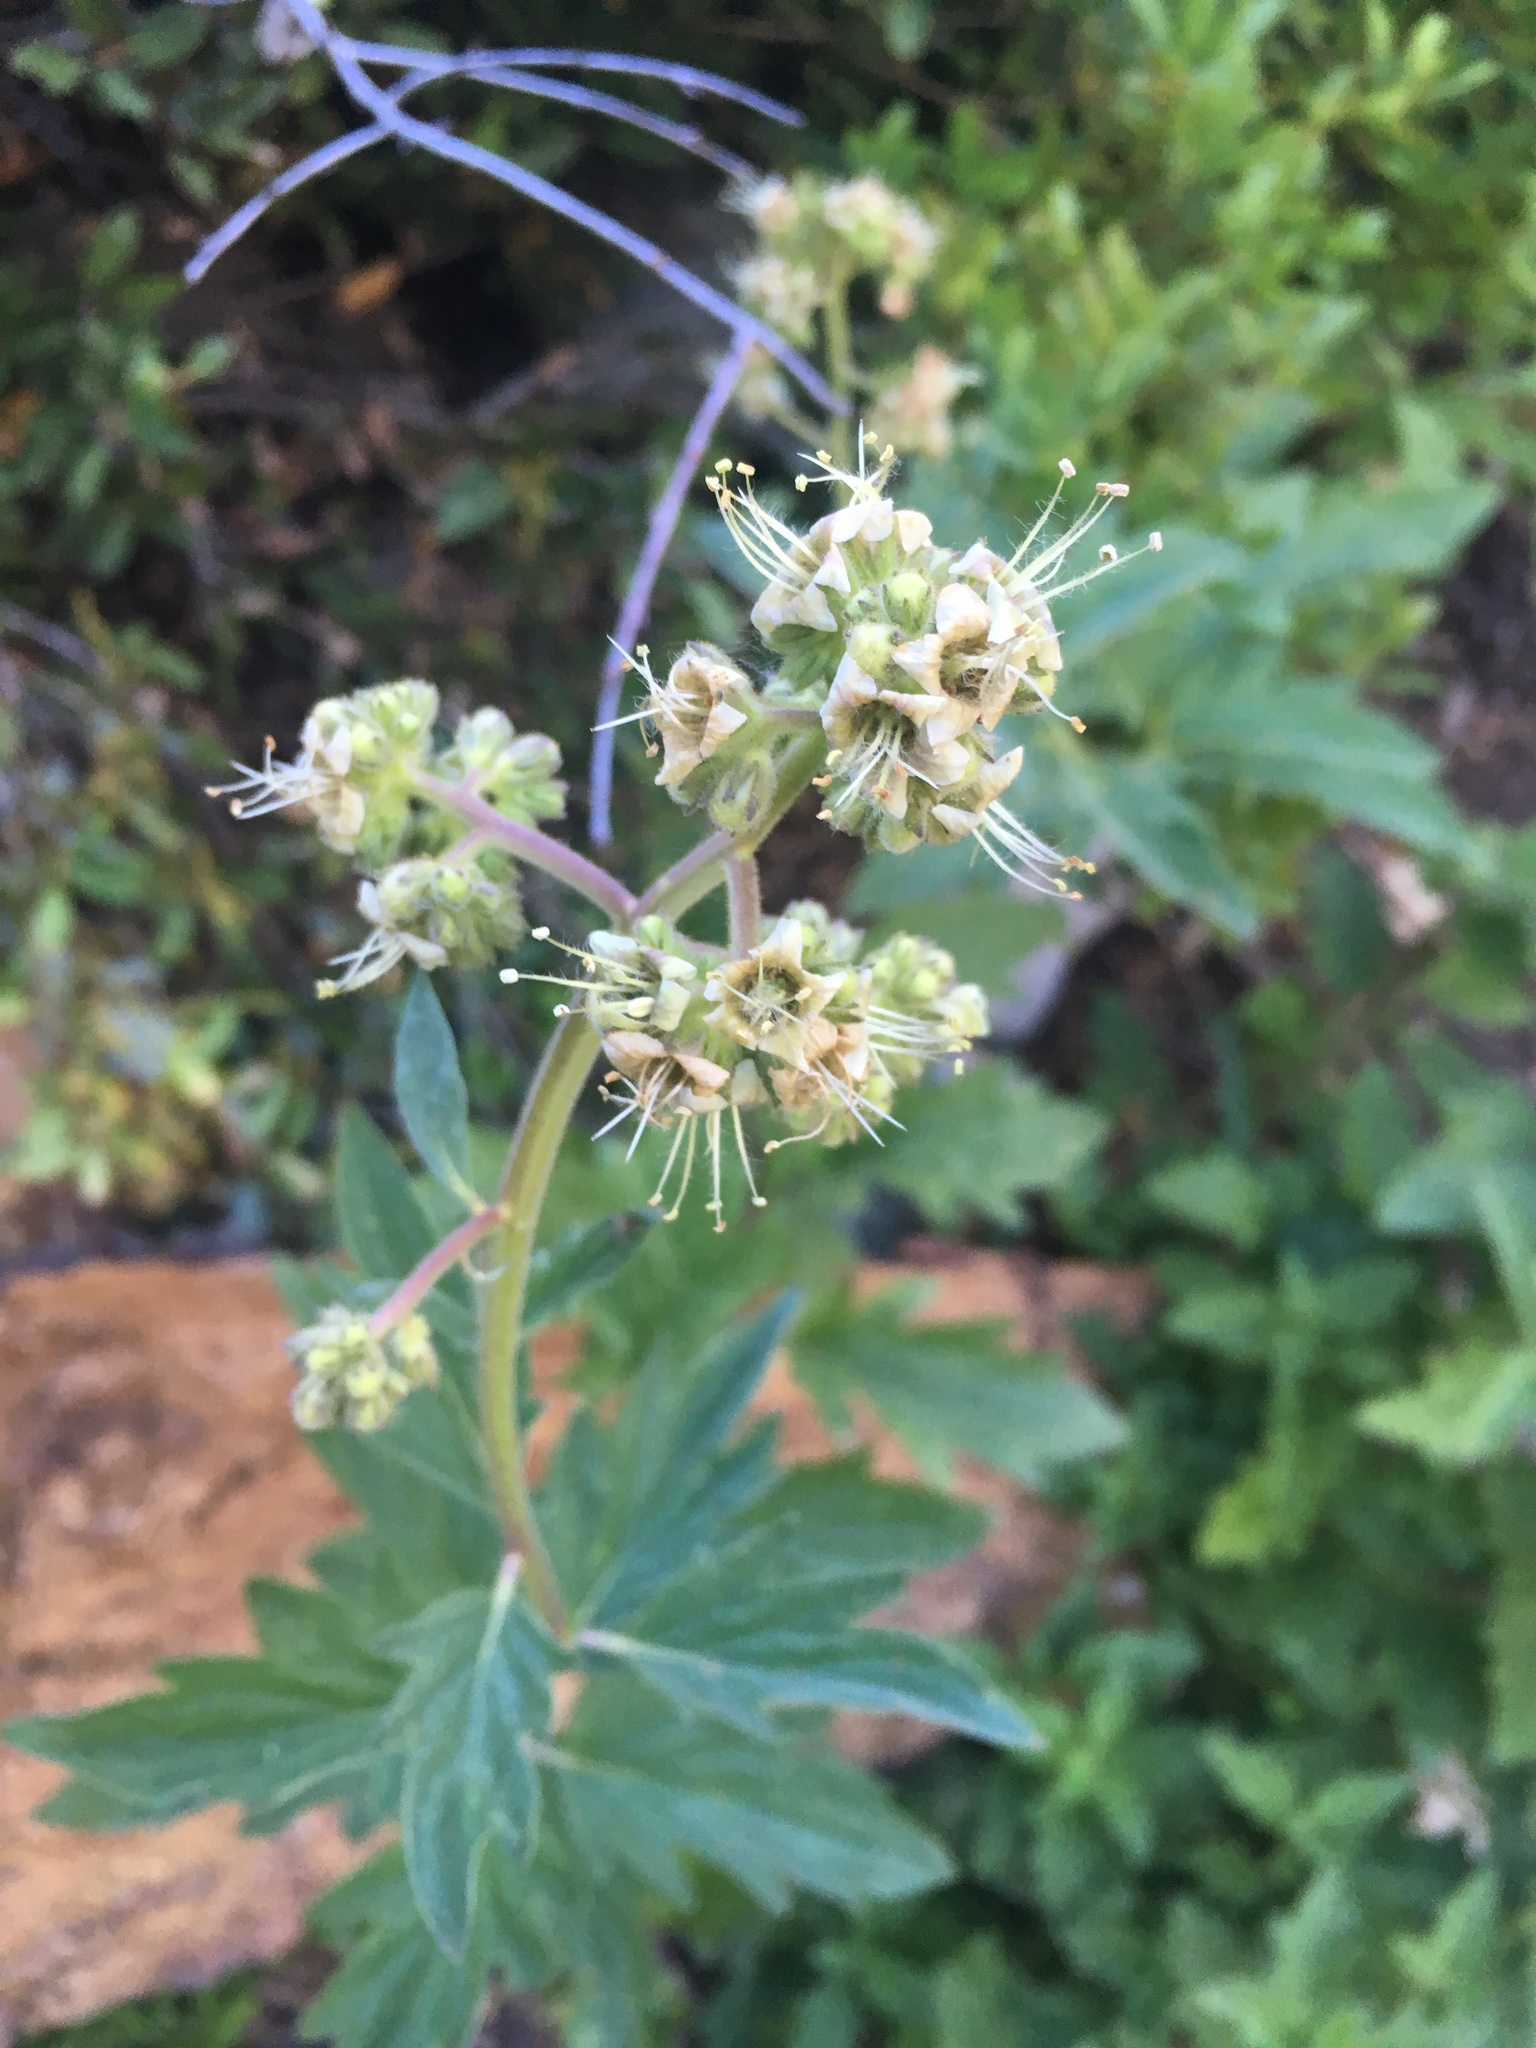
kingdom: Plantae
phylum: Tracheophyta
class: Magnoliopsida
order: Boraginales
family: Hydrophyllaceae
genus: Phacelia
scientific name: Phacelia procera
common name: Tall phacelia
